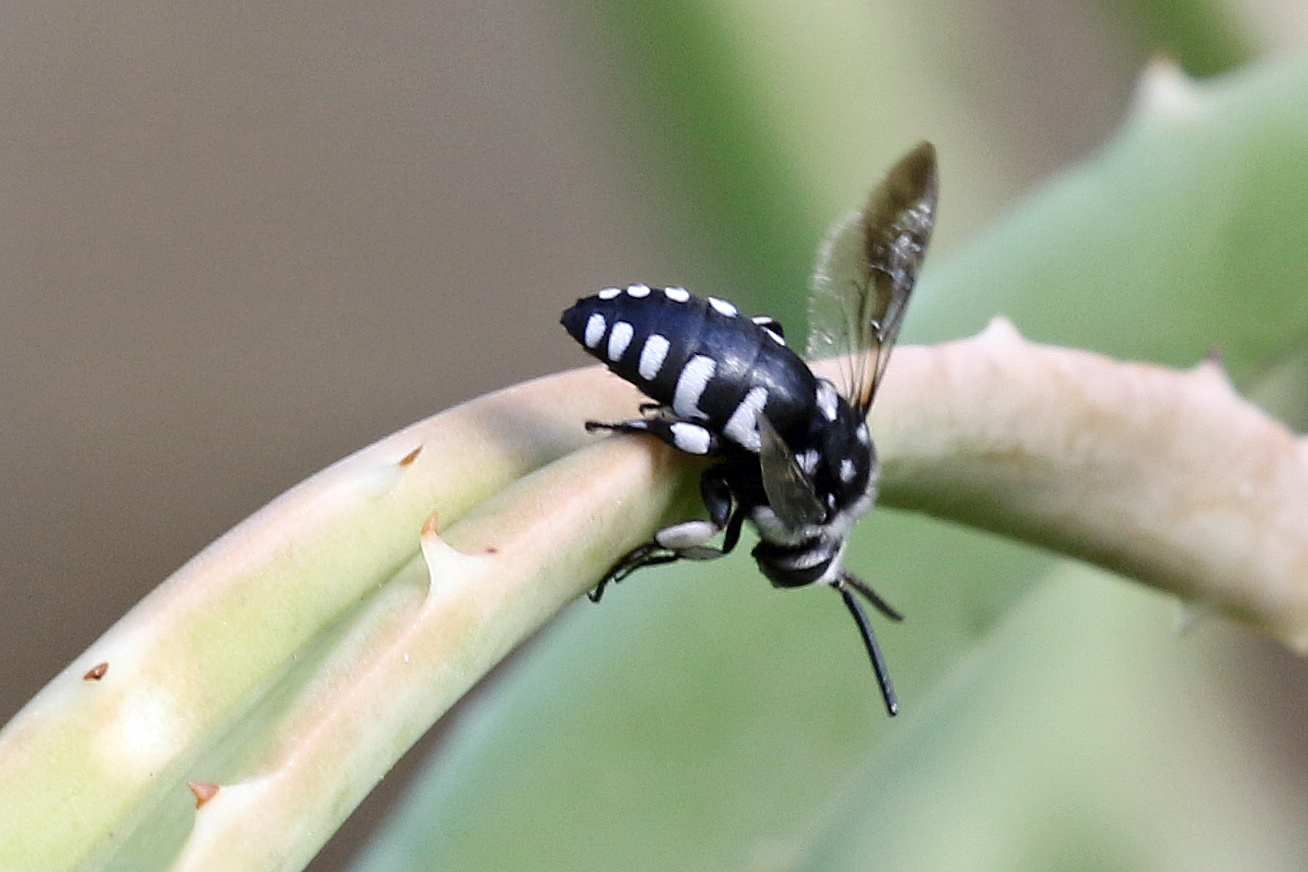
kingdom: Animalia
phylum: Arthropoda
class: Insecta
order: Hymenoptera
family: Apidae
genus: Thyreus
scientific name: Thyreus histrionicus
